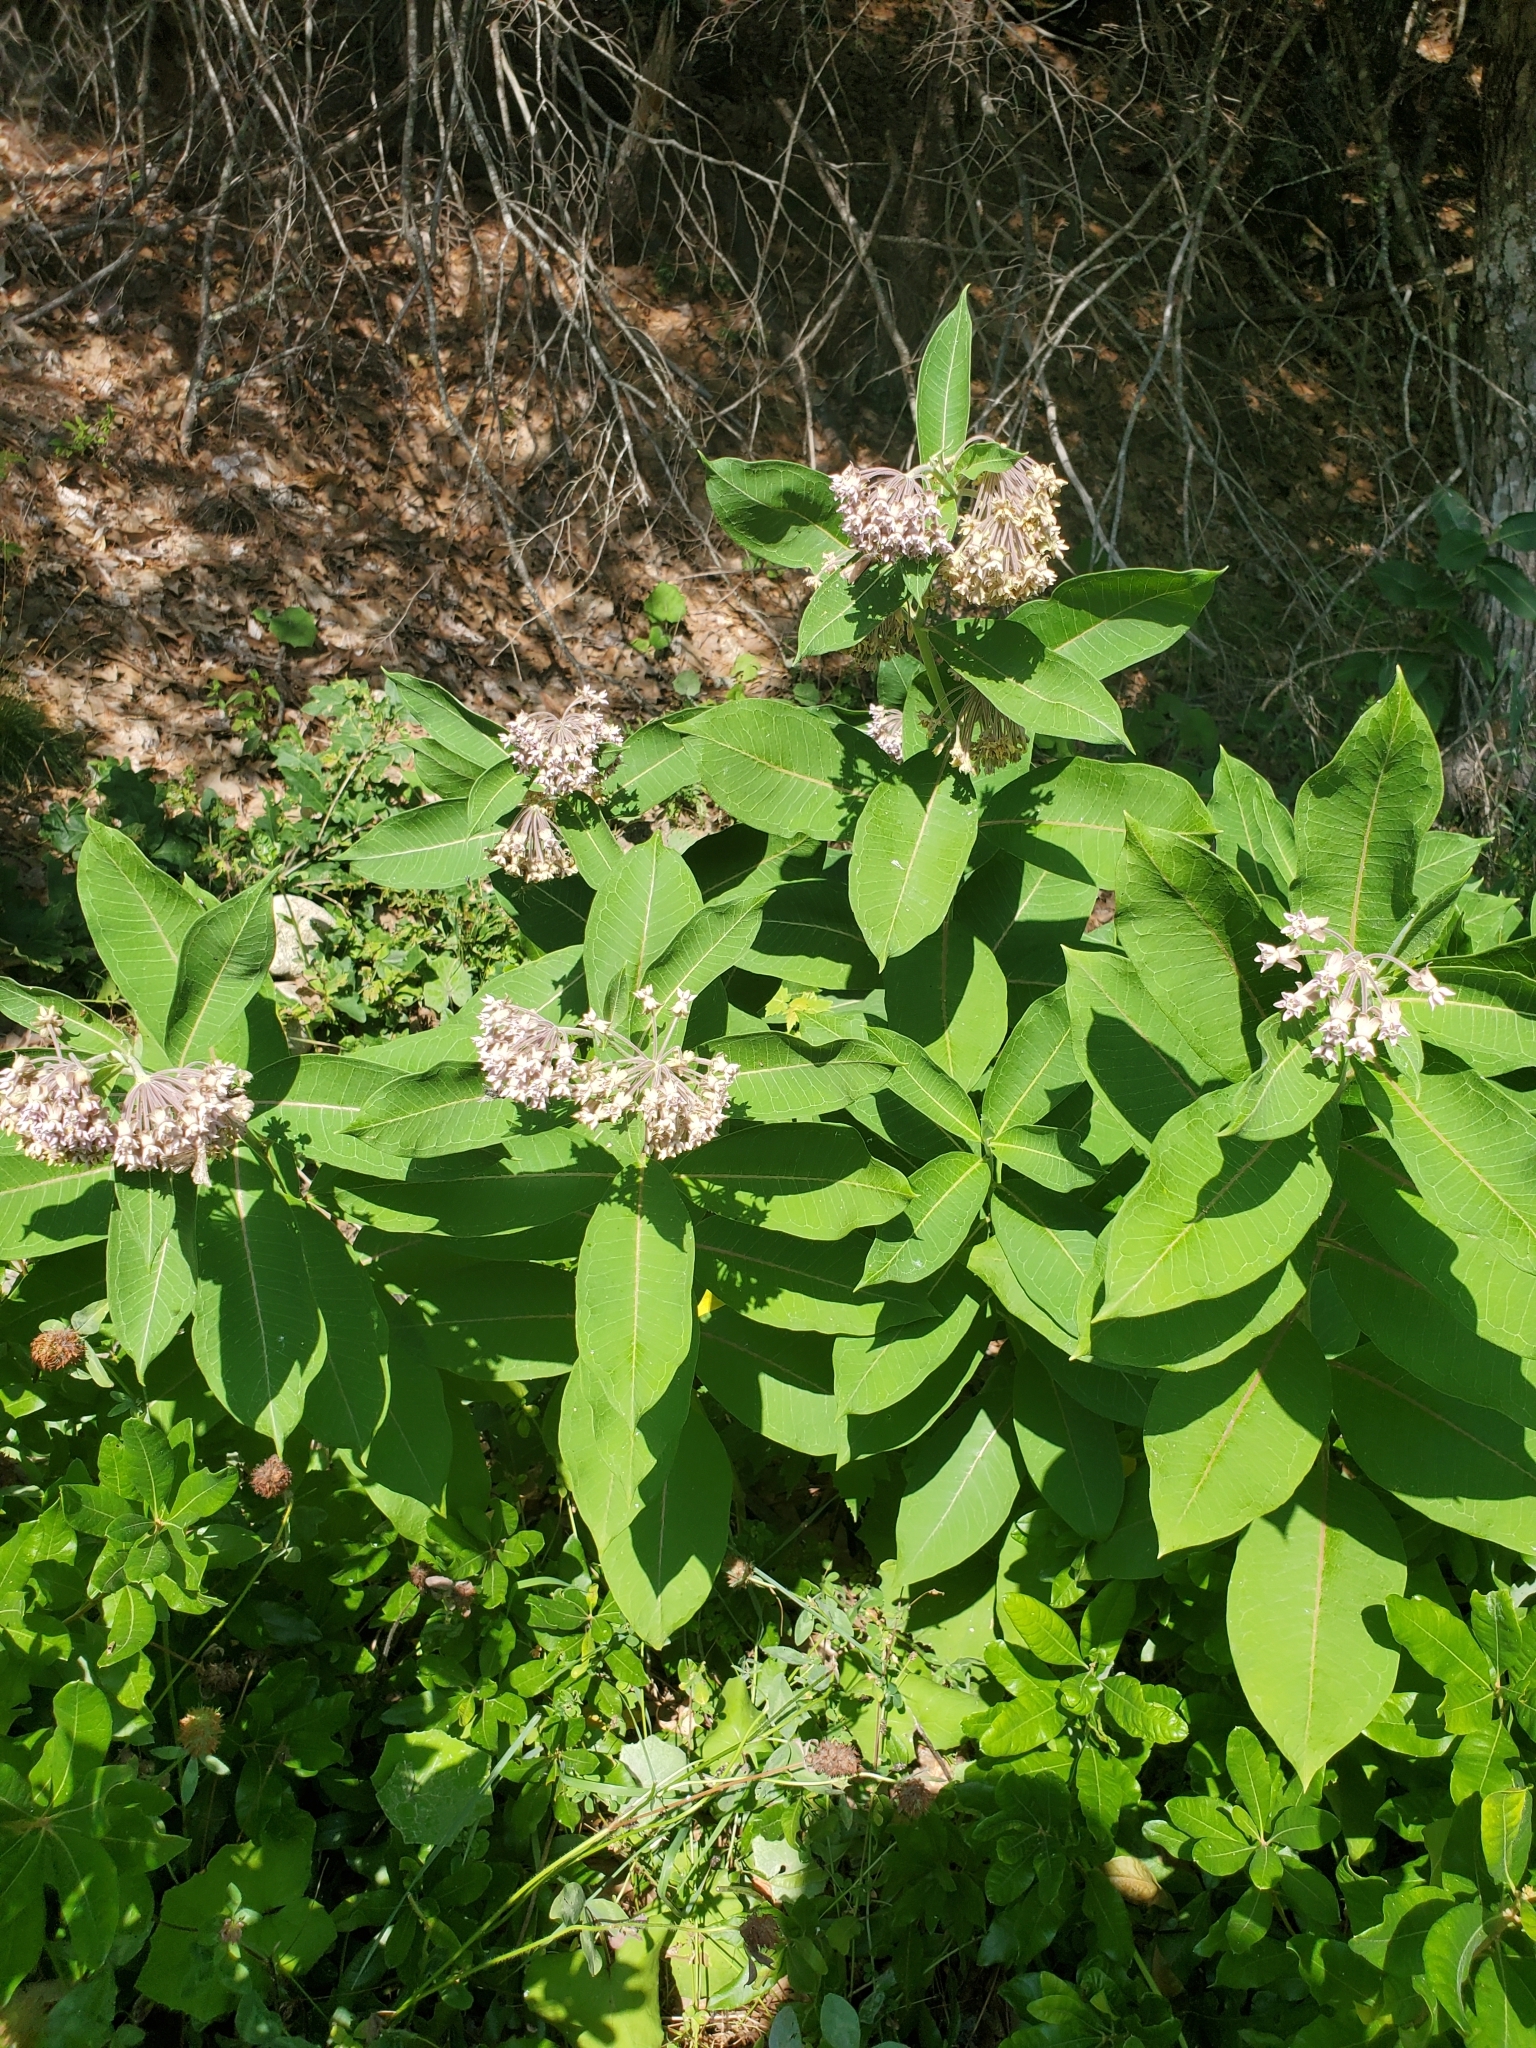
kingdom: Plantae
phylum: Tracheophyta
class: Magnoliopsida
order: Gentianales
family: Apocynaceae
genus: Asclepias
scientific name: Asclepias syriaca
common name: Common milkweed
